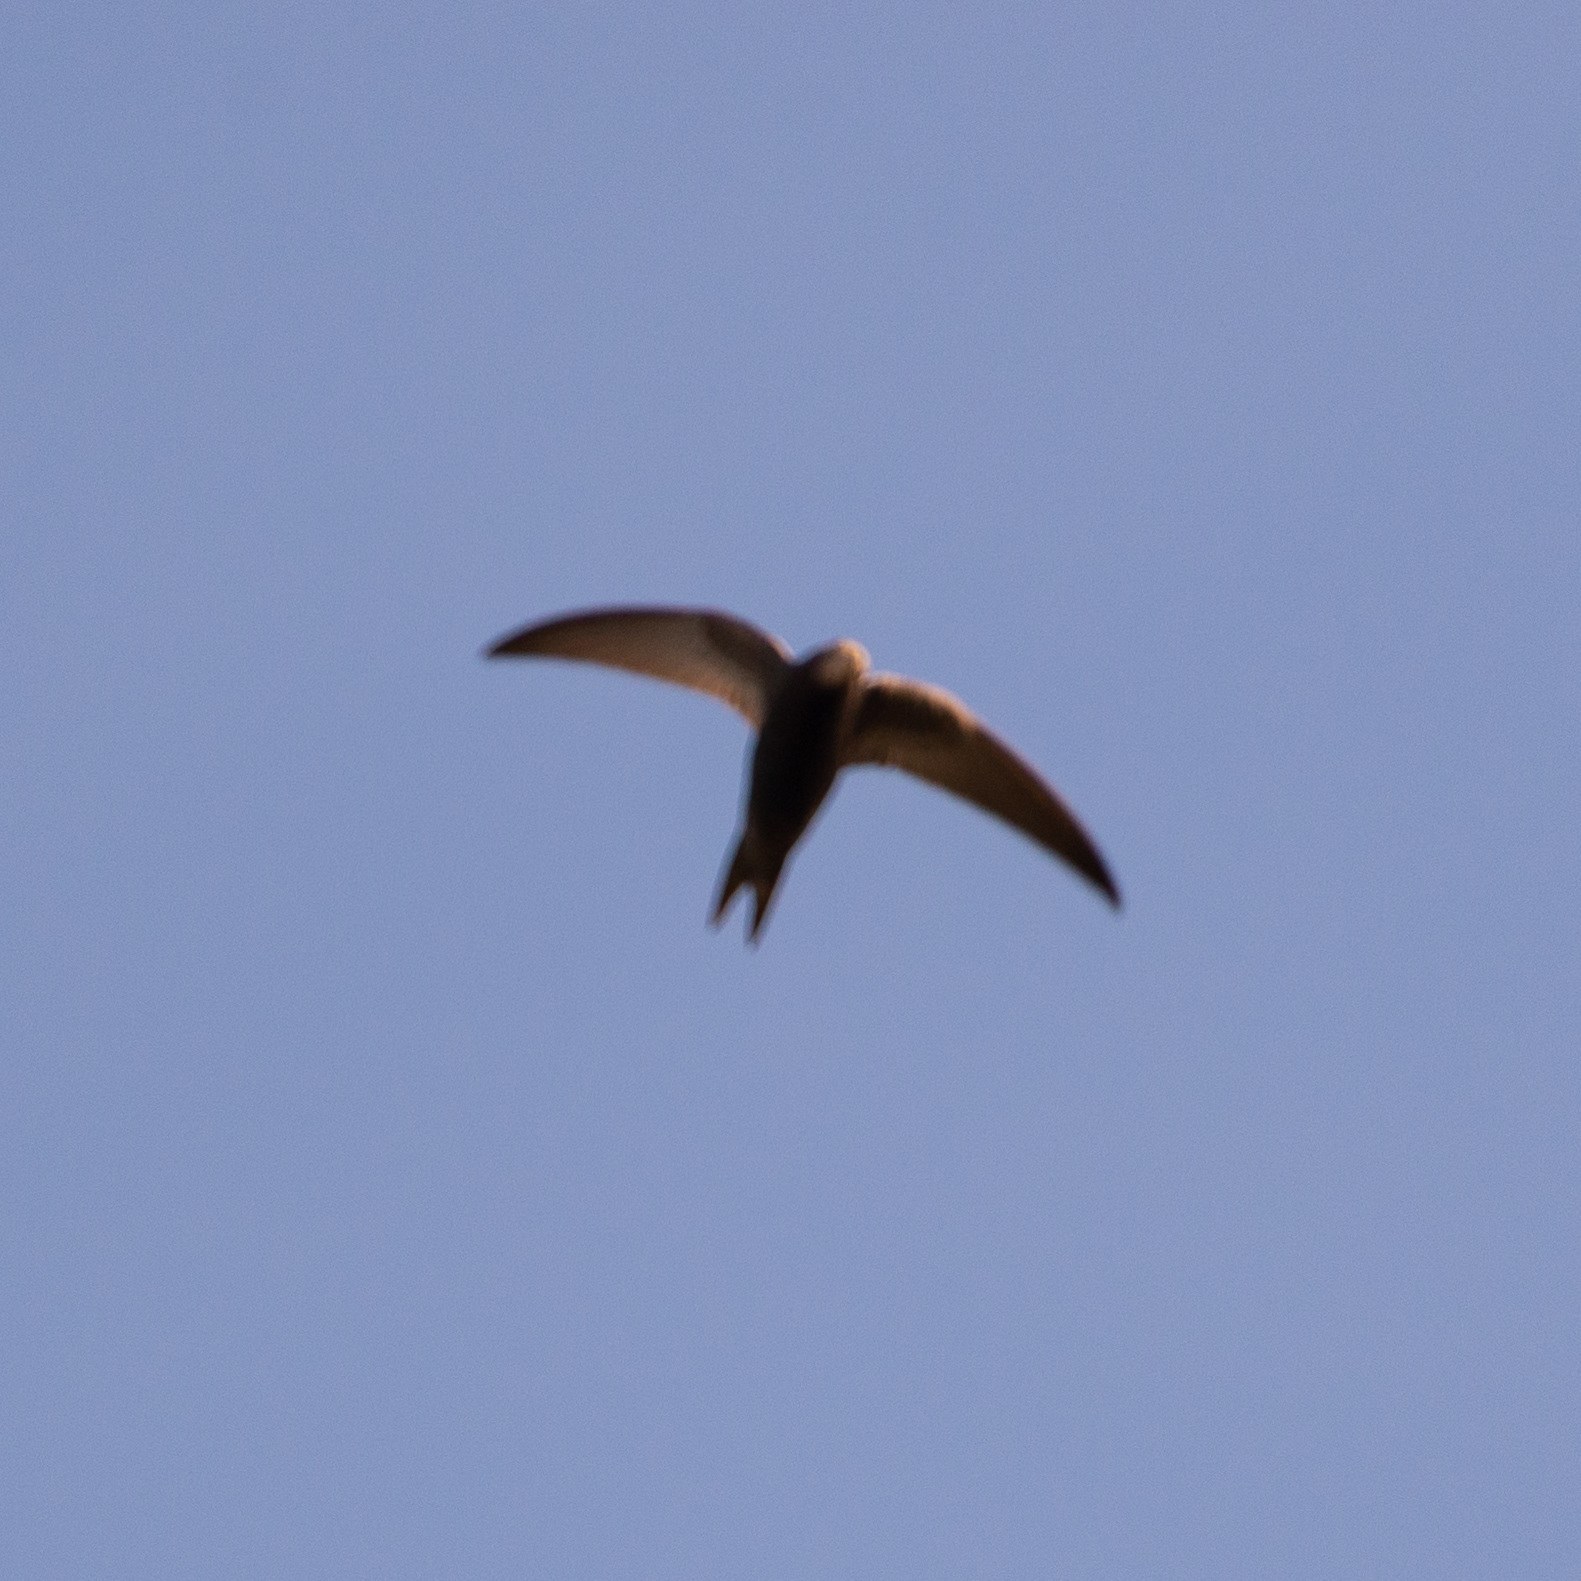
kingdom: Animalia
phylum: Chordata
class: Aves
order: Apodiformes
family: Apodidae
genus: Apus
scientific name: Apus apus
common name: Common swift
